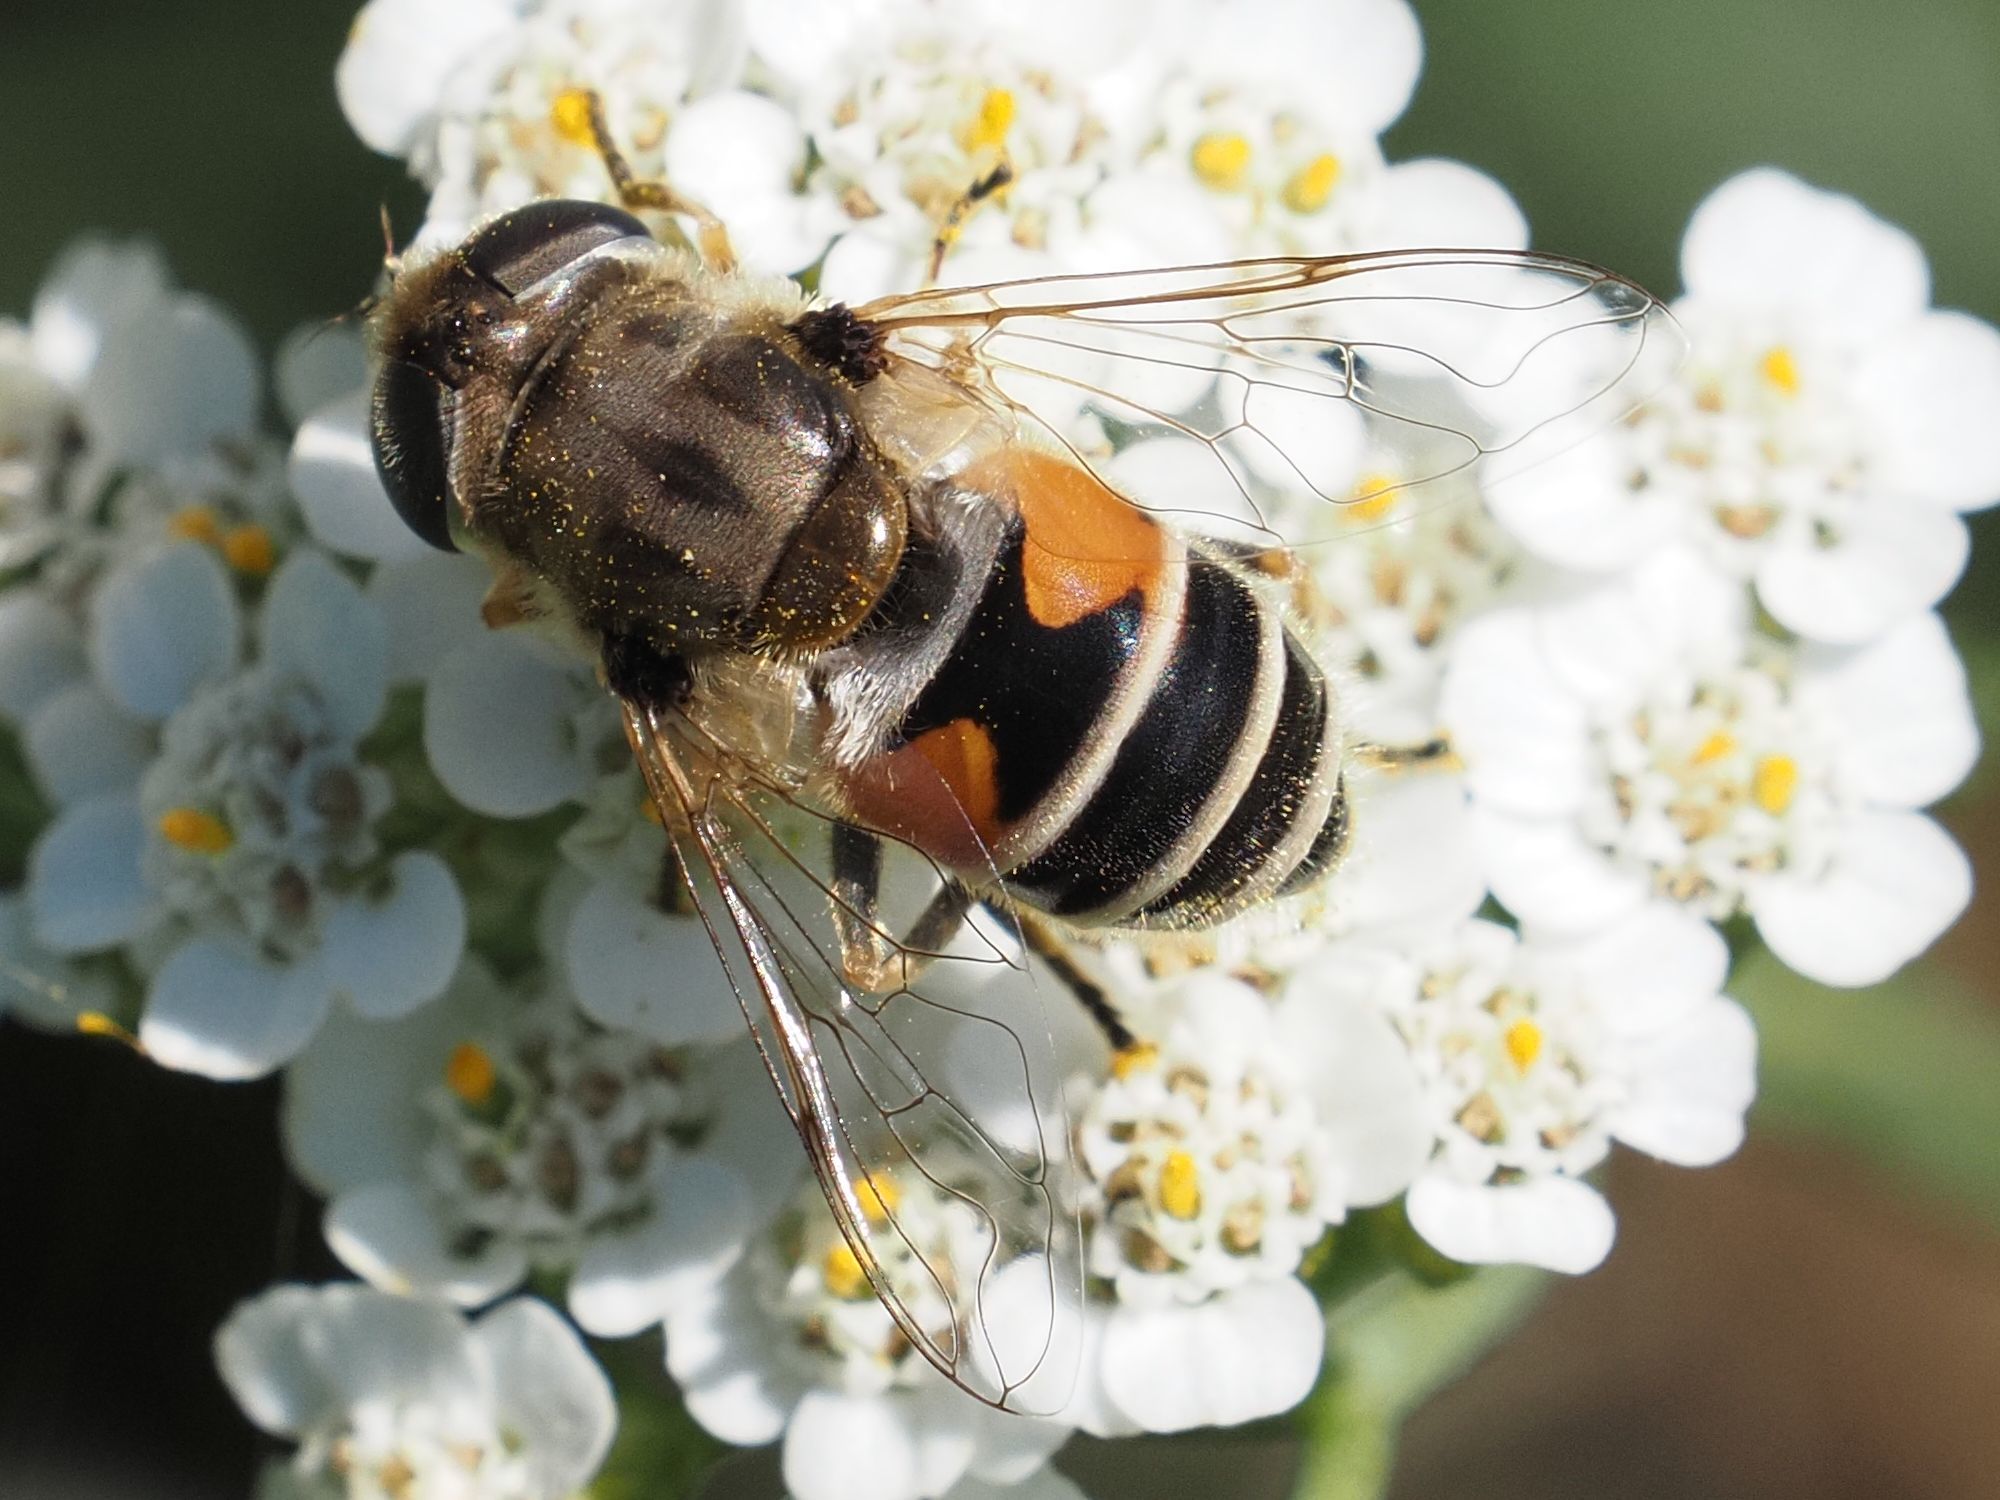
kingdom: Animalia
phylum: Arthropoda
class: Insecta
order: Diptera
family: Syrphidae
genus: Eristalis
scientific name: Eristalis arbustorum
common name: Hover fly
